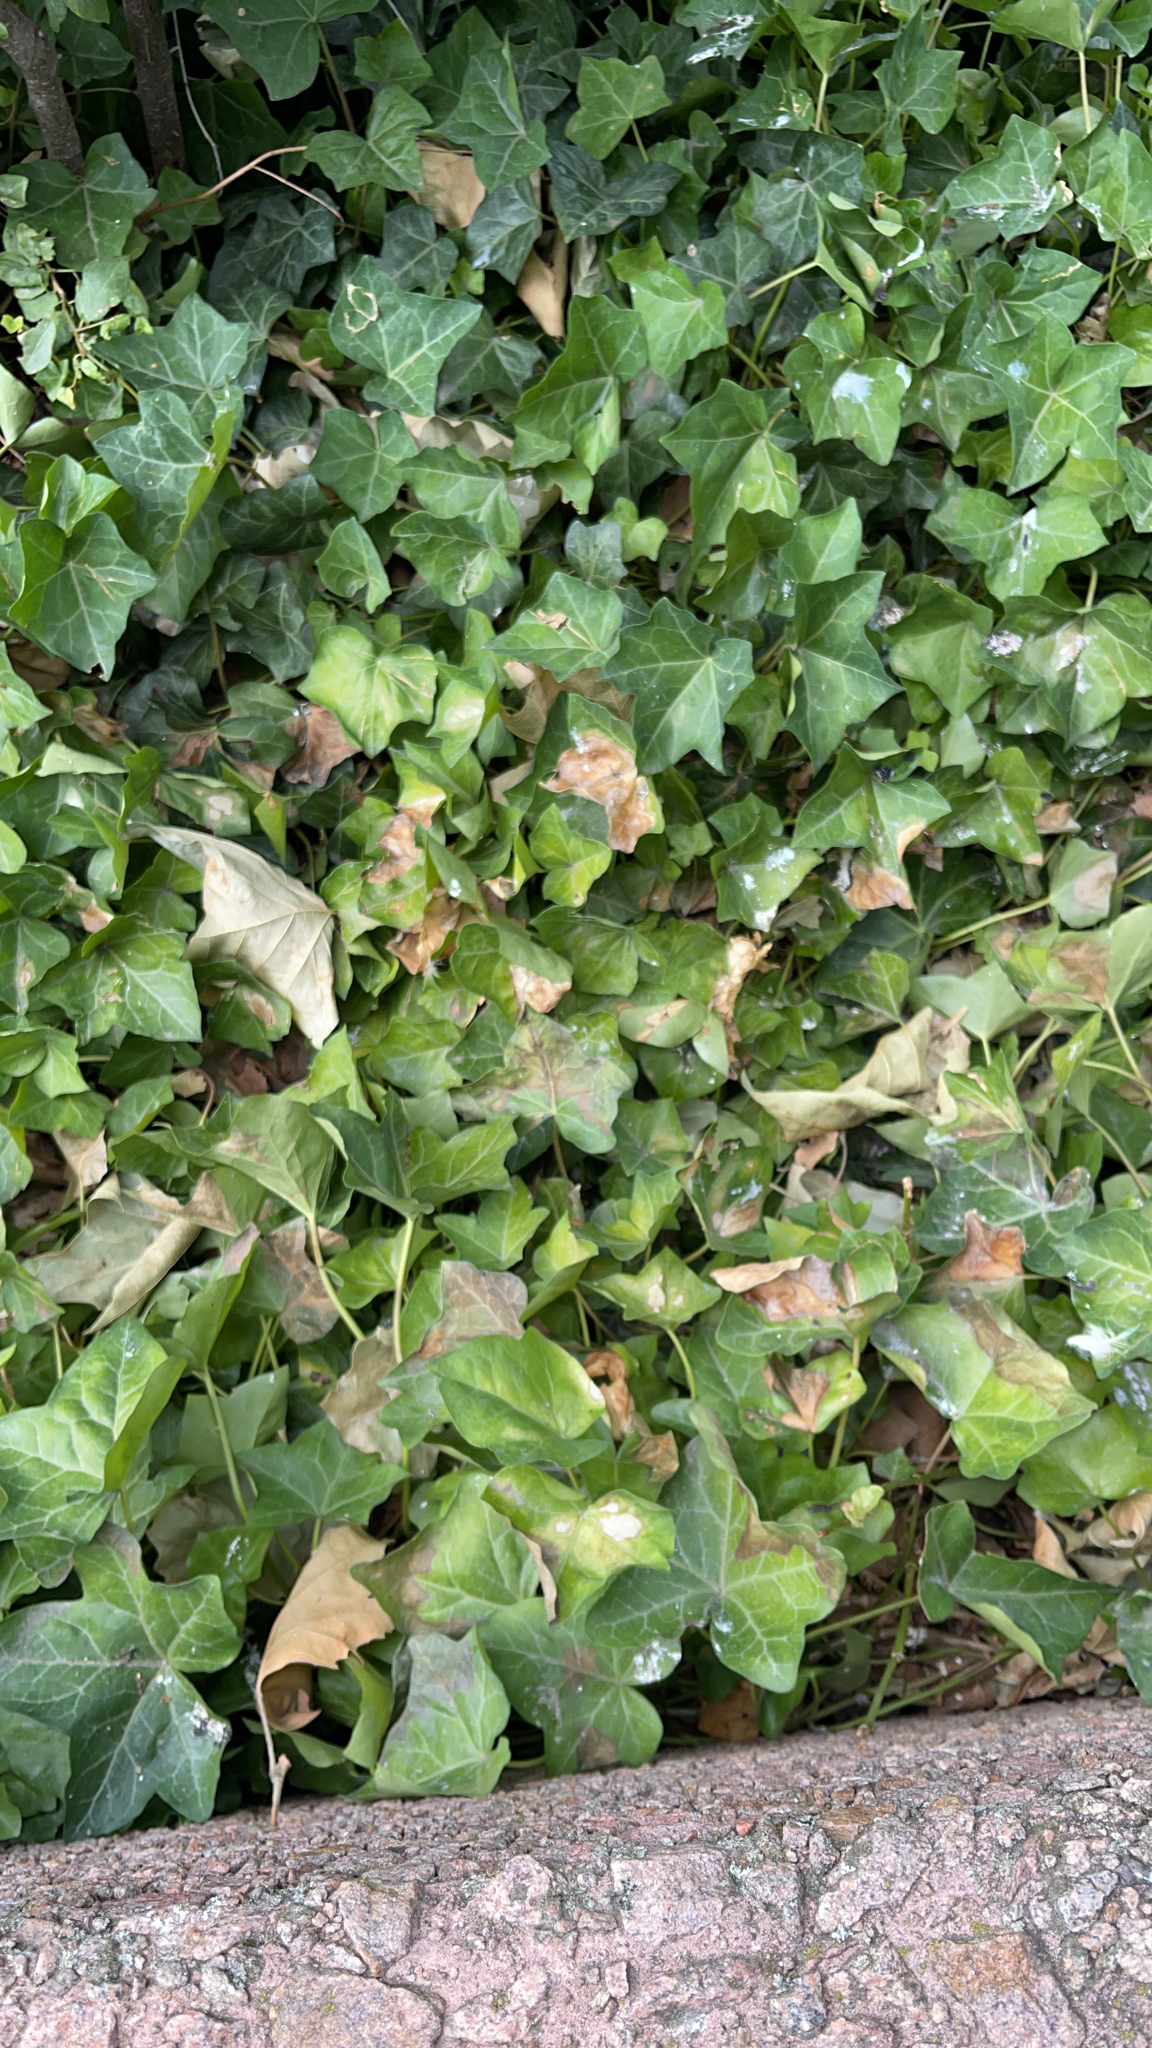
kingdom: Plantae
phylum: Tracheophyta
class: Magnoliopsida
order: Apiales
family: Araliaceae
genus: Hedera
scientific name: Hedera helix
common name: Ivy
